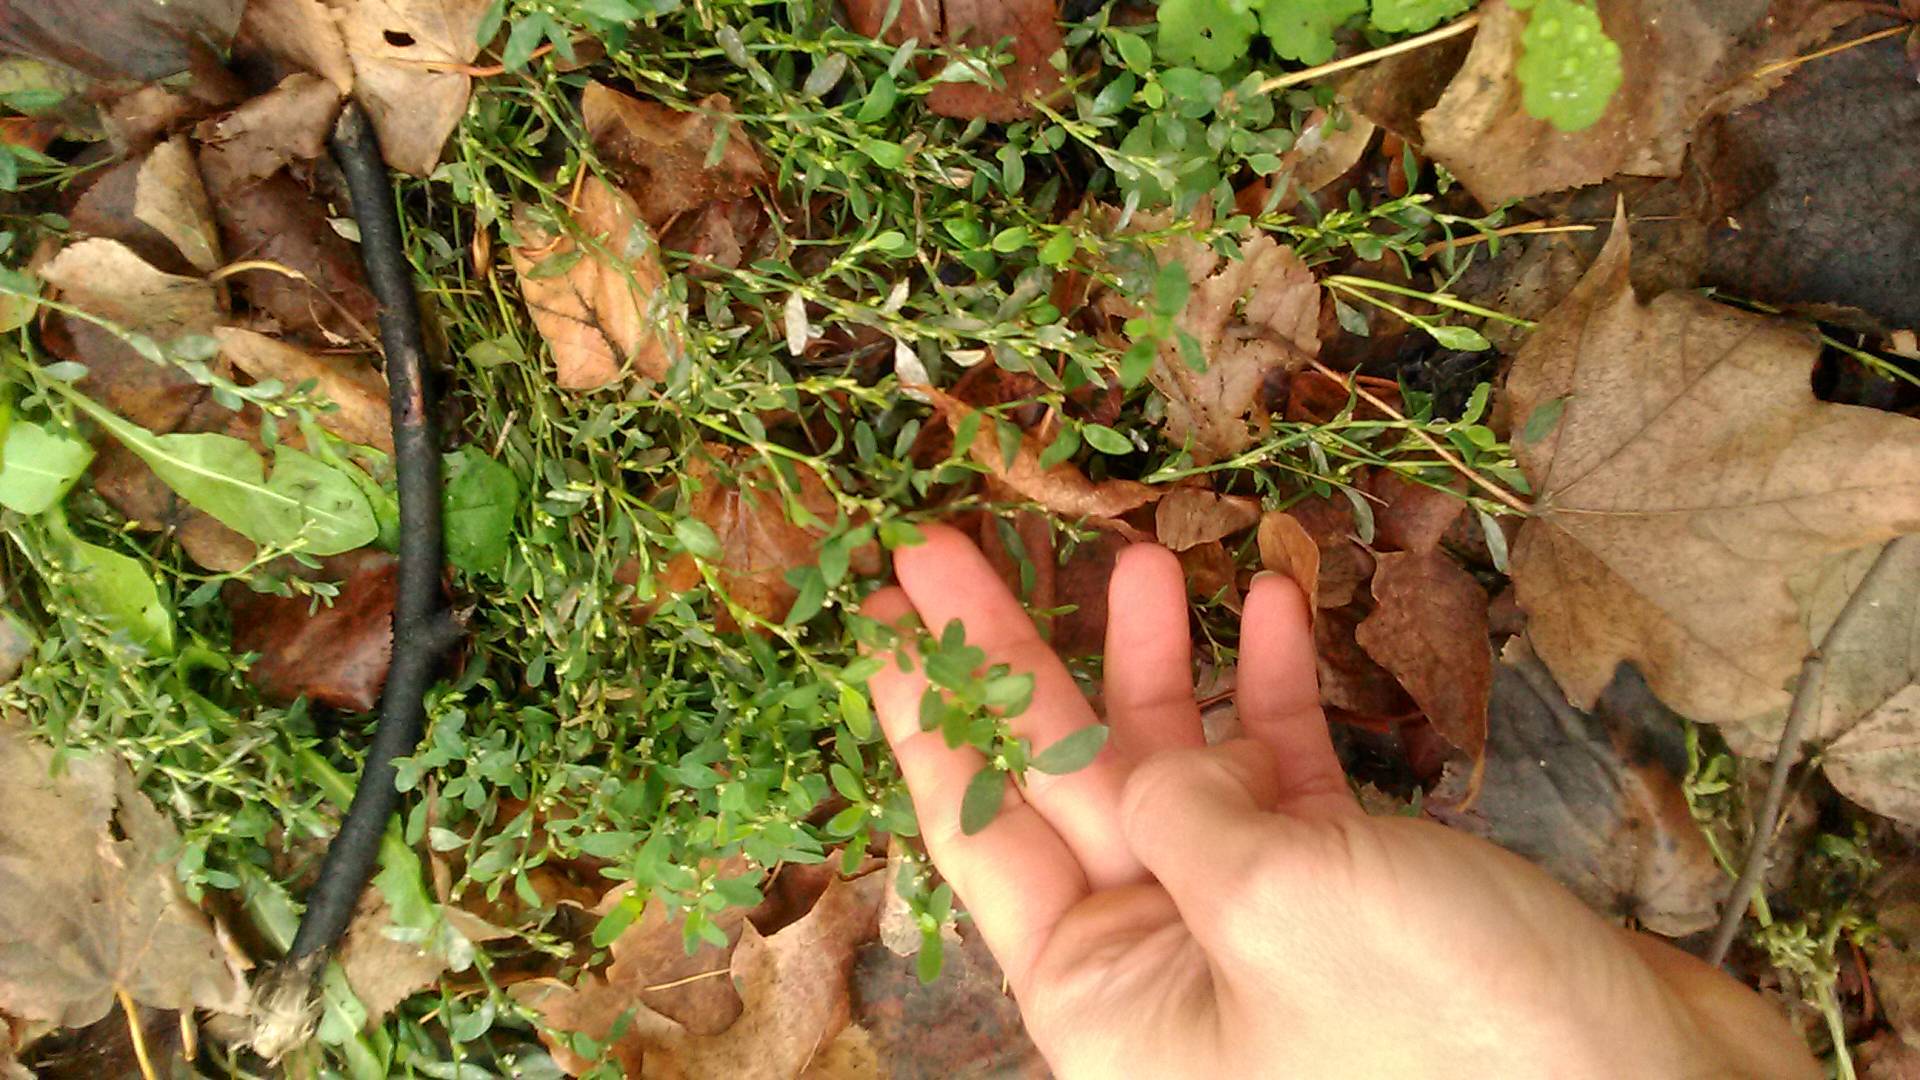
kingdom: Plantae
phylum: Tracheophyta
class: Magnoliopsida
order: Caryophyllales
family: Polygonaceae
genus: Polygonum
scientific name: Polygonum
